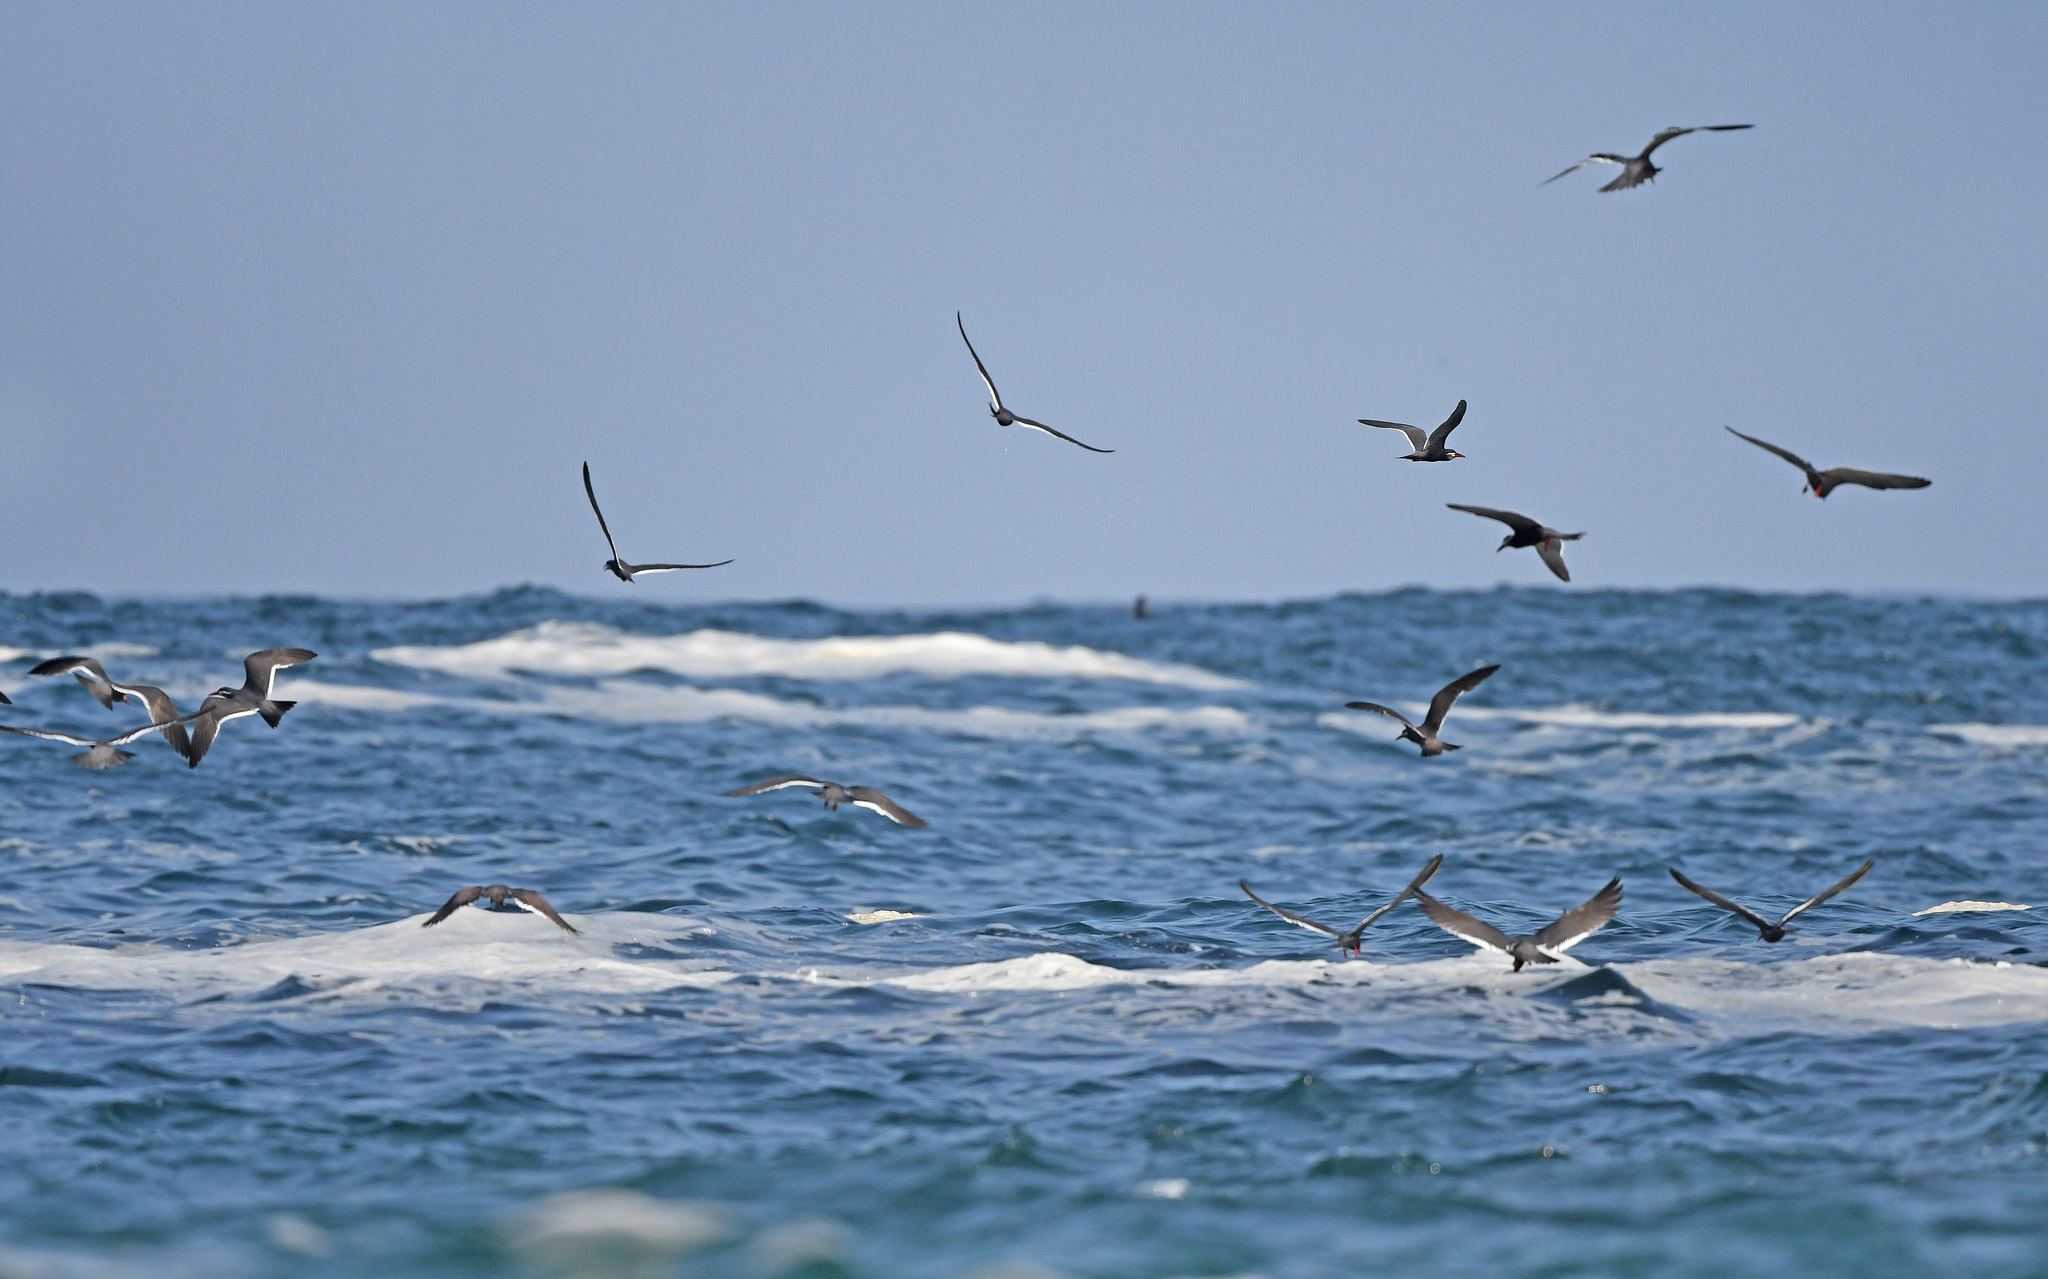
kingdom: Animalia
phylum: Chordata
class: Aves
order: Charadriiformes
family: Laridae
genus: Larosterna
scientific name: Larosterna inca
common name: Inca tern
